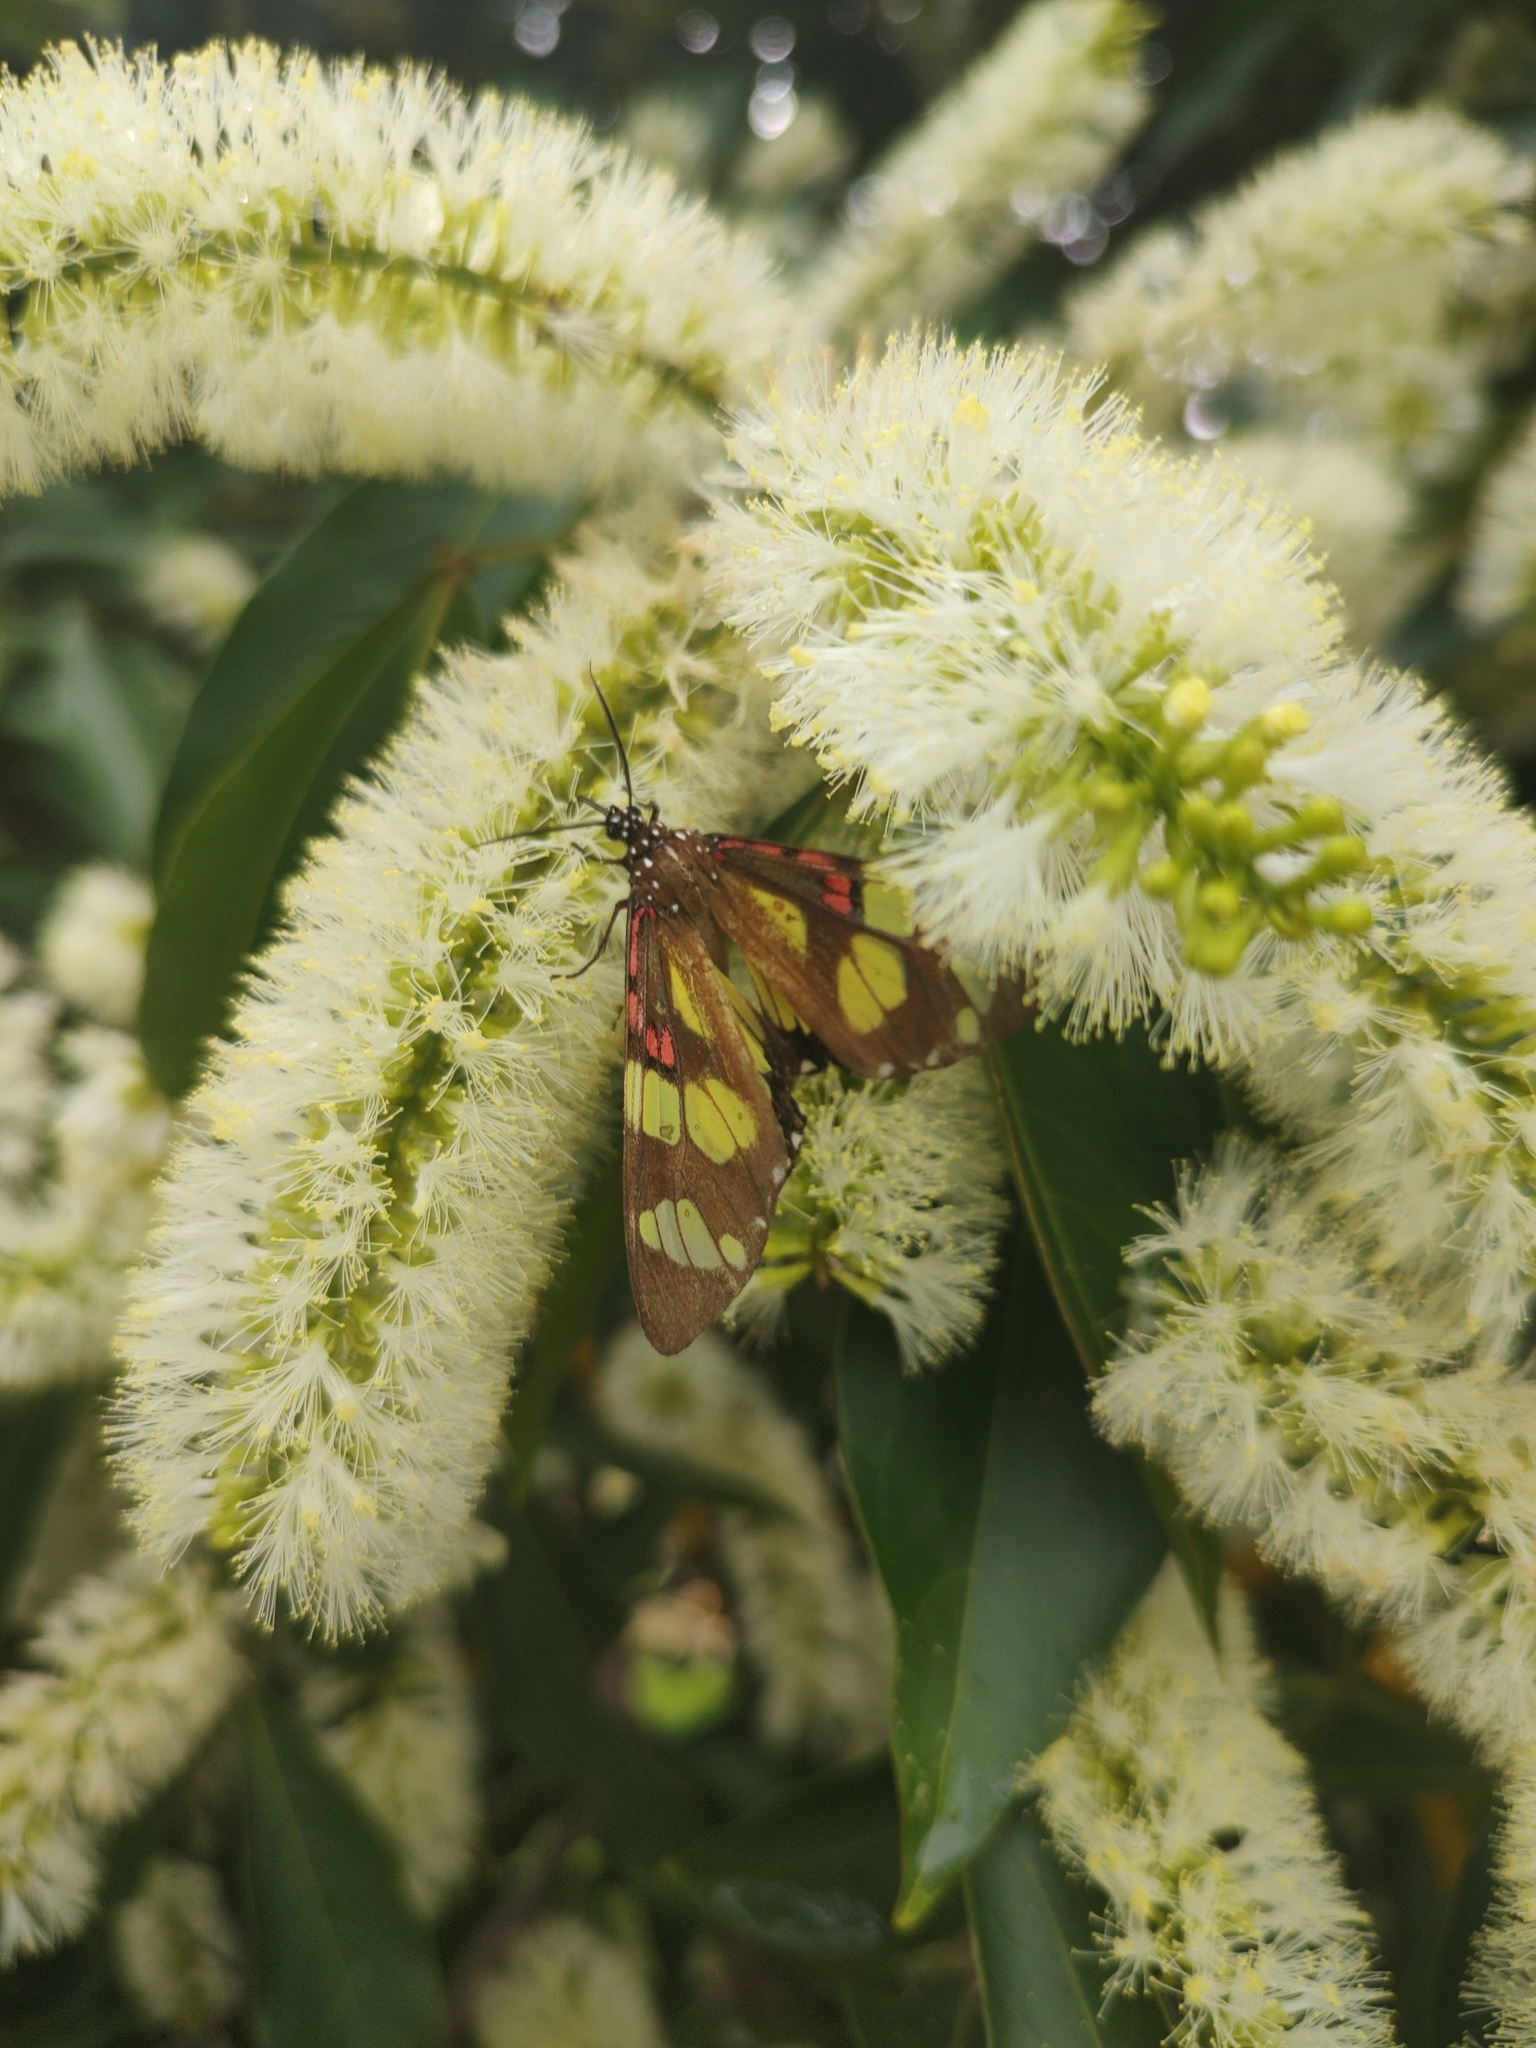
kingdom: Animalia
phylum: Arthropoda
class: Insecta
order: Lepidoptera
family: Erebidae
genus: Phaloe
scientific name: Phaloe cruenta
